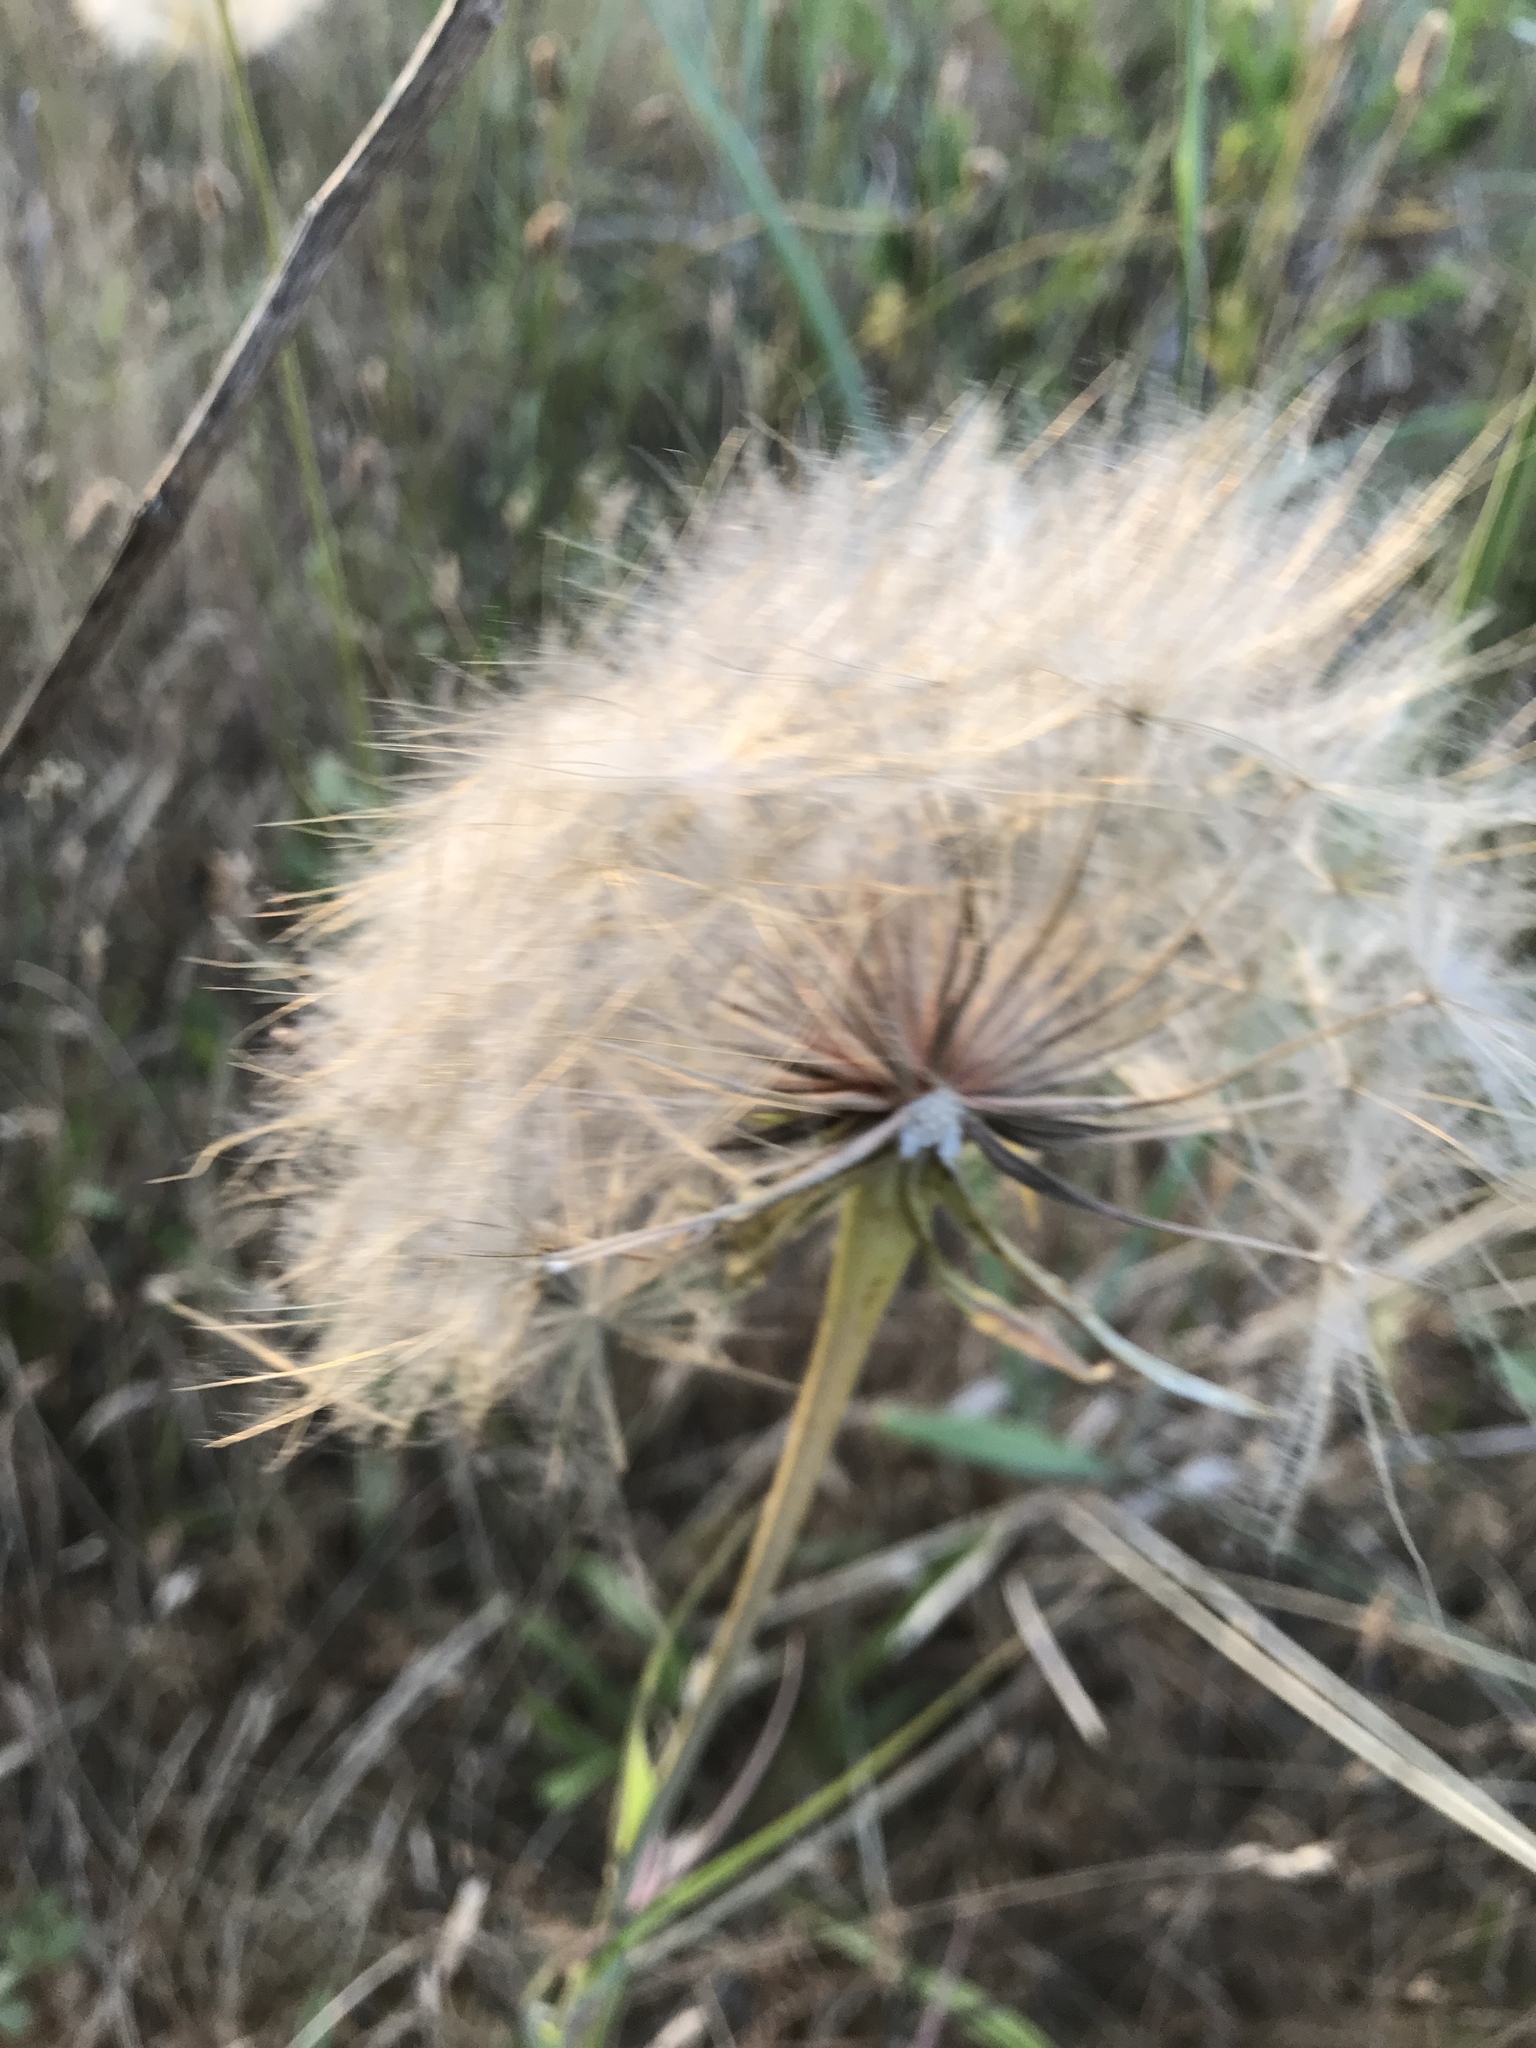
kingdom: Plantae
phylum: Tracheophyta
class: Magnoliopsida
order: Asterales
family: Asteraceae
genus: Tragopogon
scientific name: Tragopogon dubius
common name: Yellow salsify
